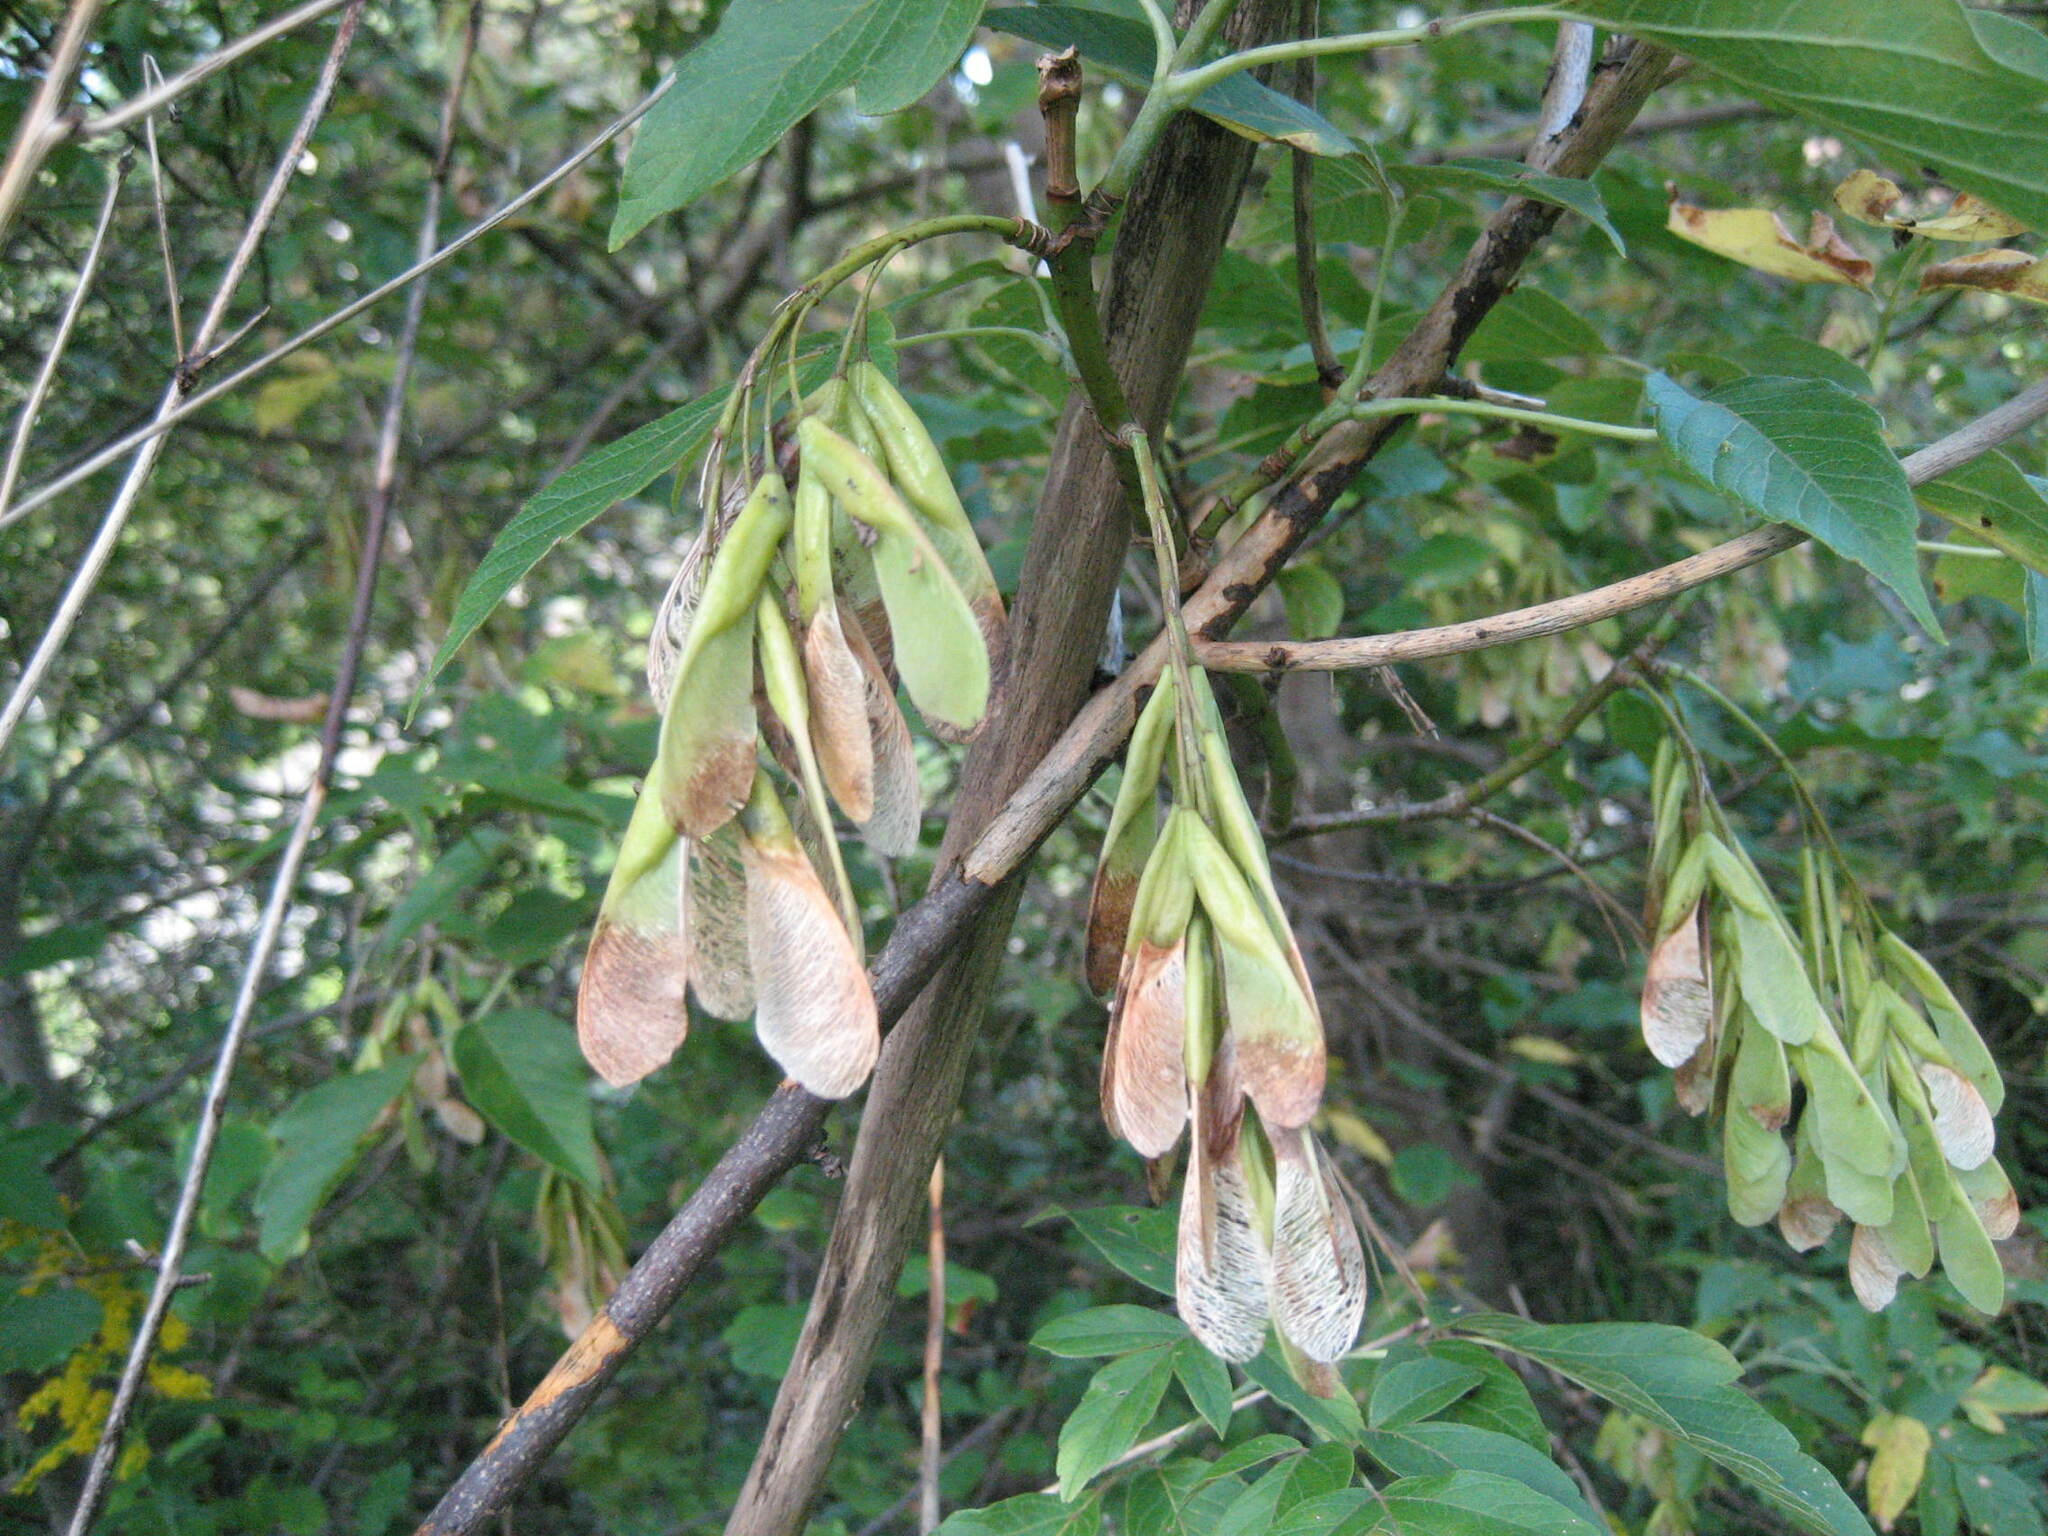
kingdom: Plantae
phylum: Tracheophyta
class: Magnoliopsida
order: Sapindales
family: Sapindaceae
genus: Acer
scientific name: Acer negundo
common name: Ashleaf maple
